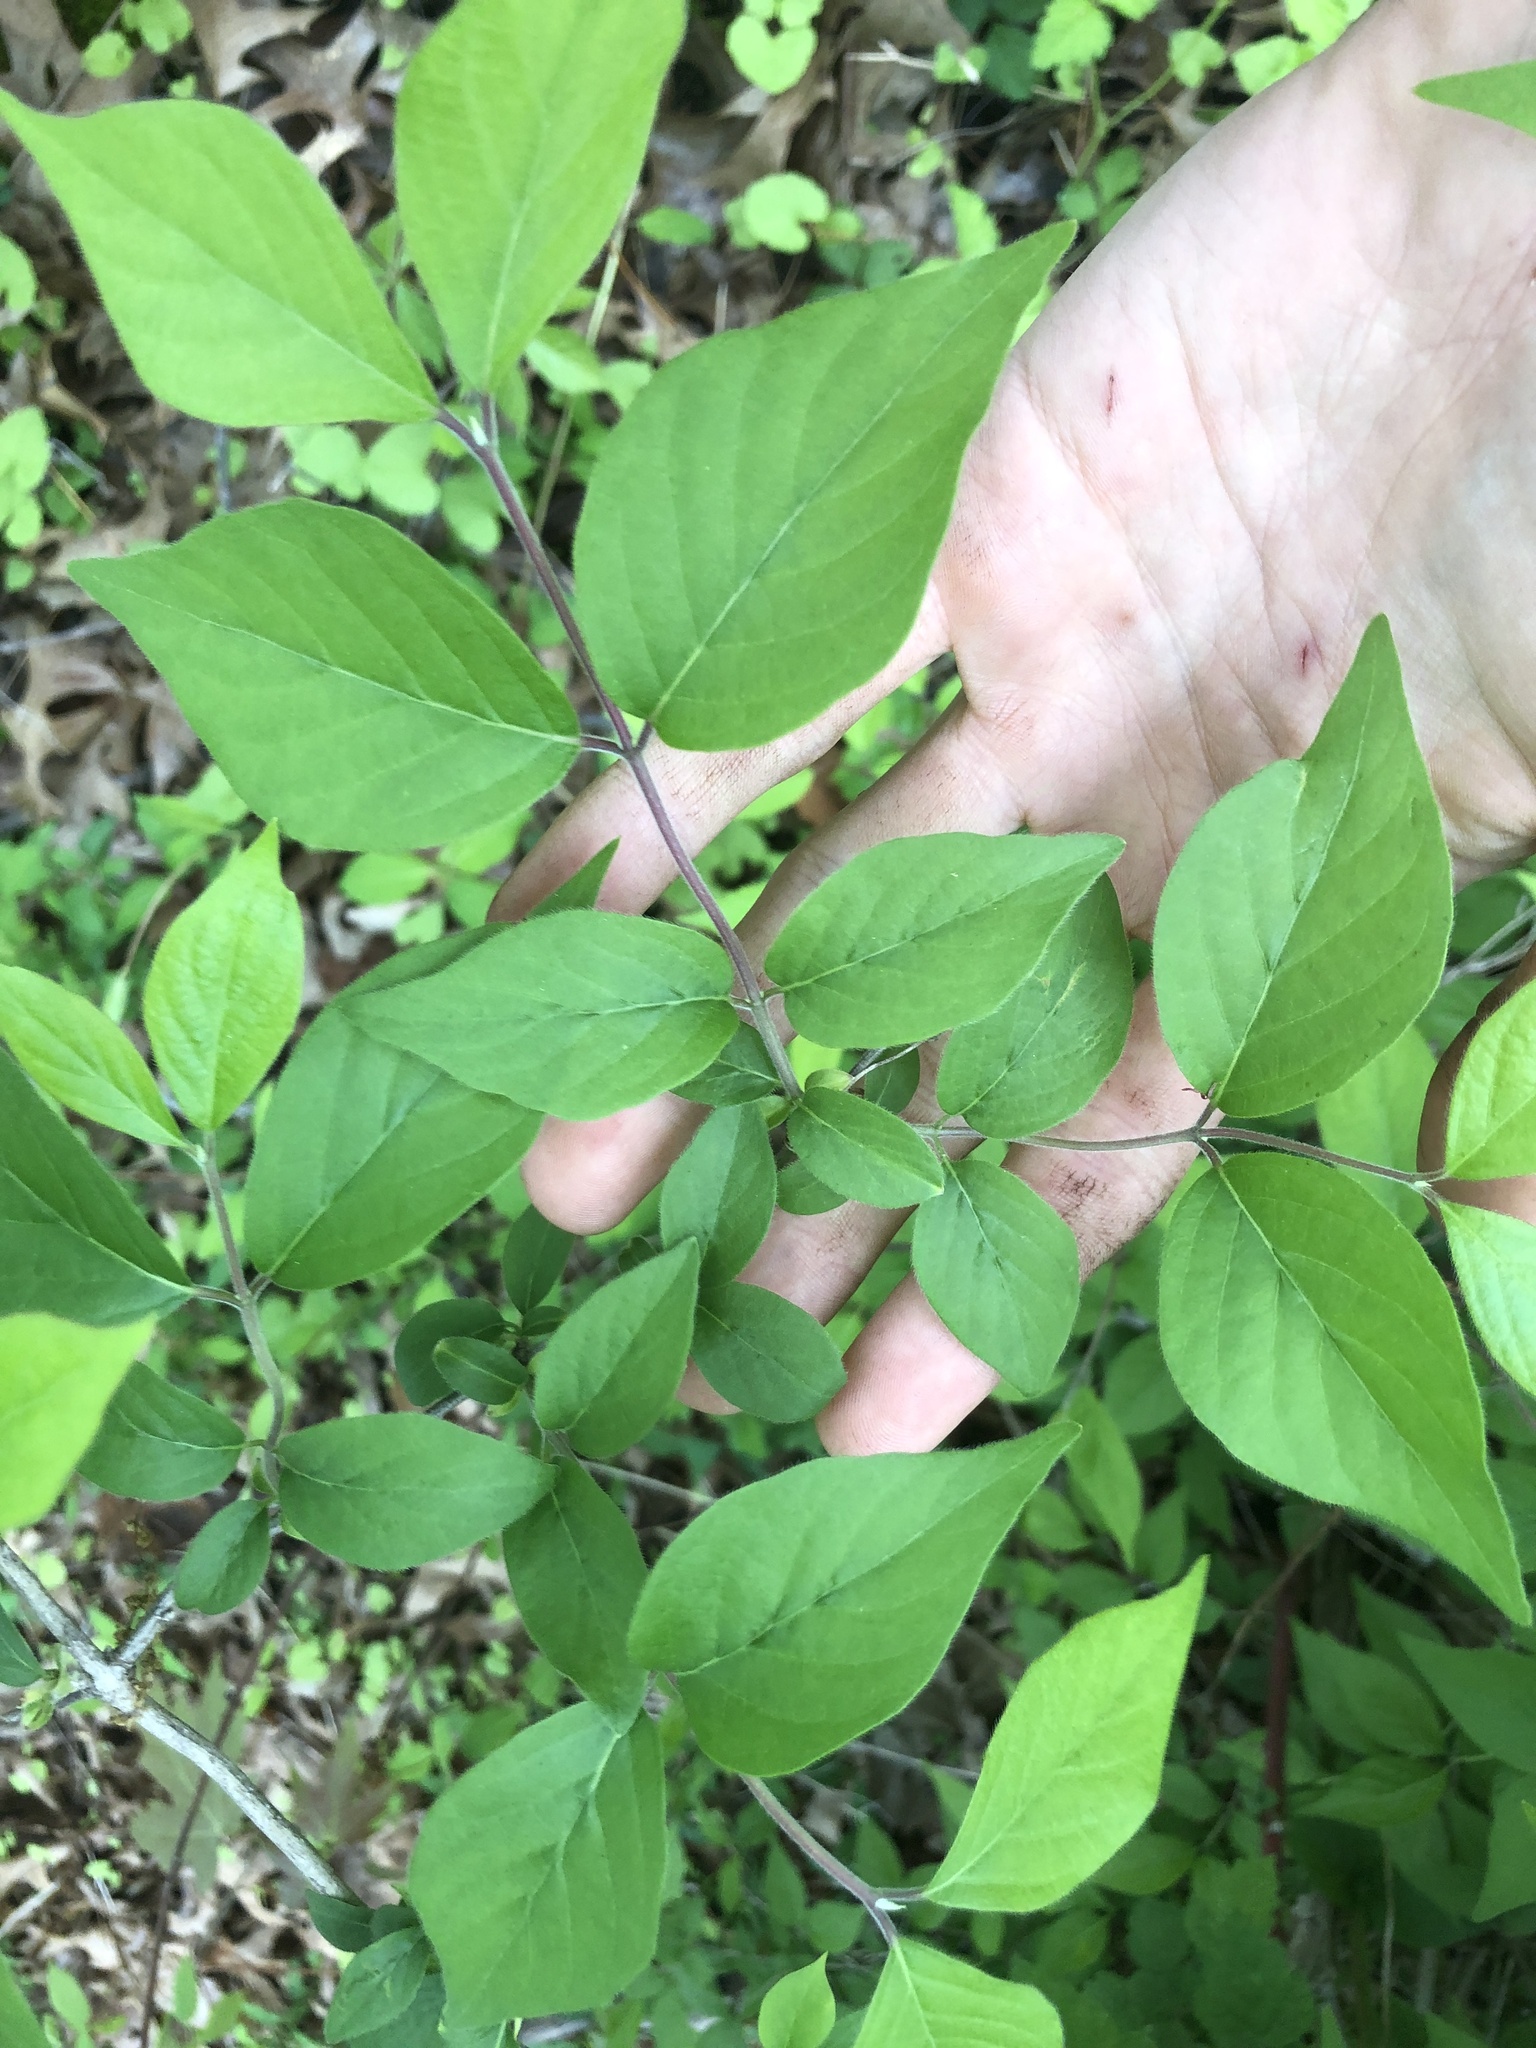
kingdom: Plantae
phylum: Tracheophyta
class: Magnoliopsida
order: Dipsacales
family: Caprifoliaceae
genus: Lonicera
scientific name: Lonicera maackii
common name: Amur honeysuckle
